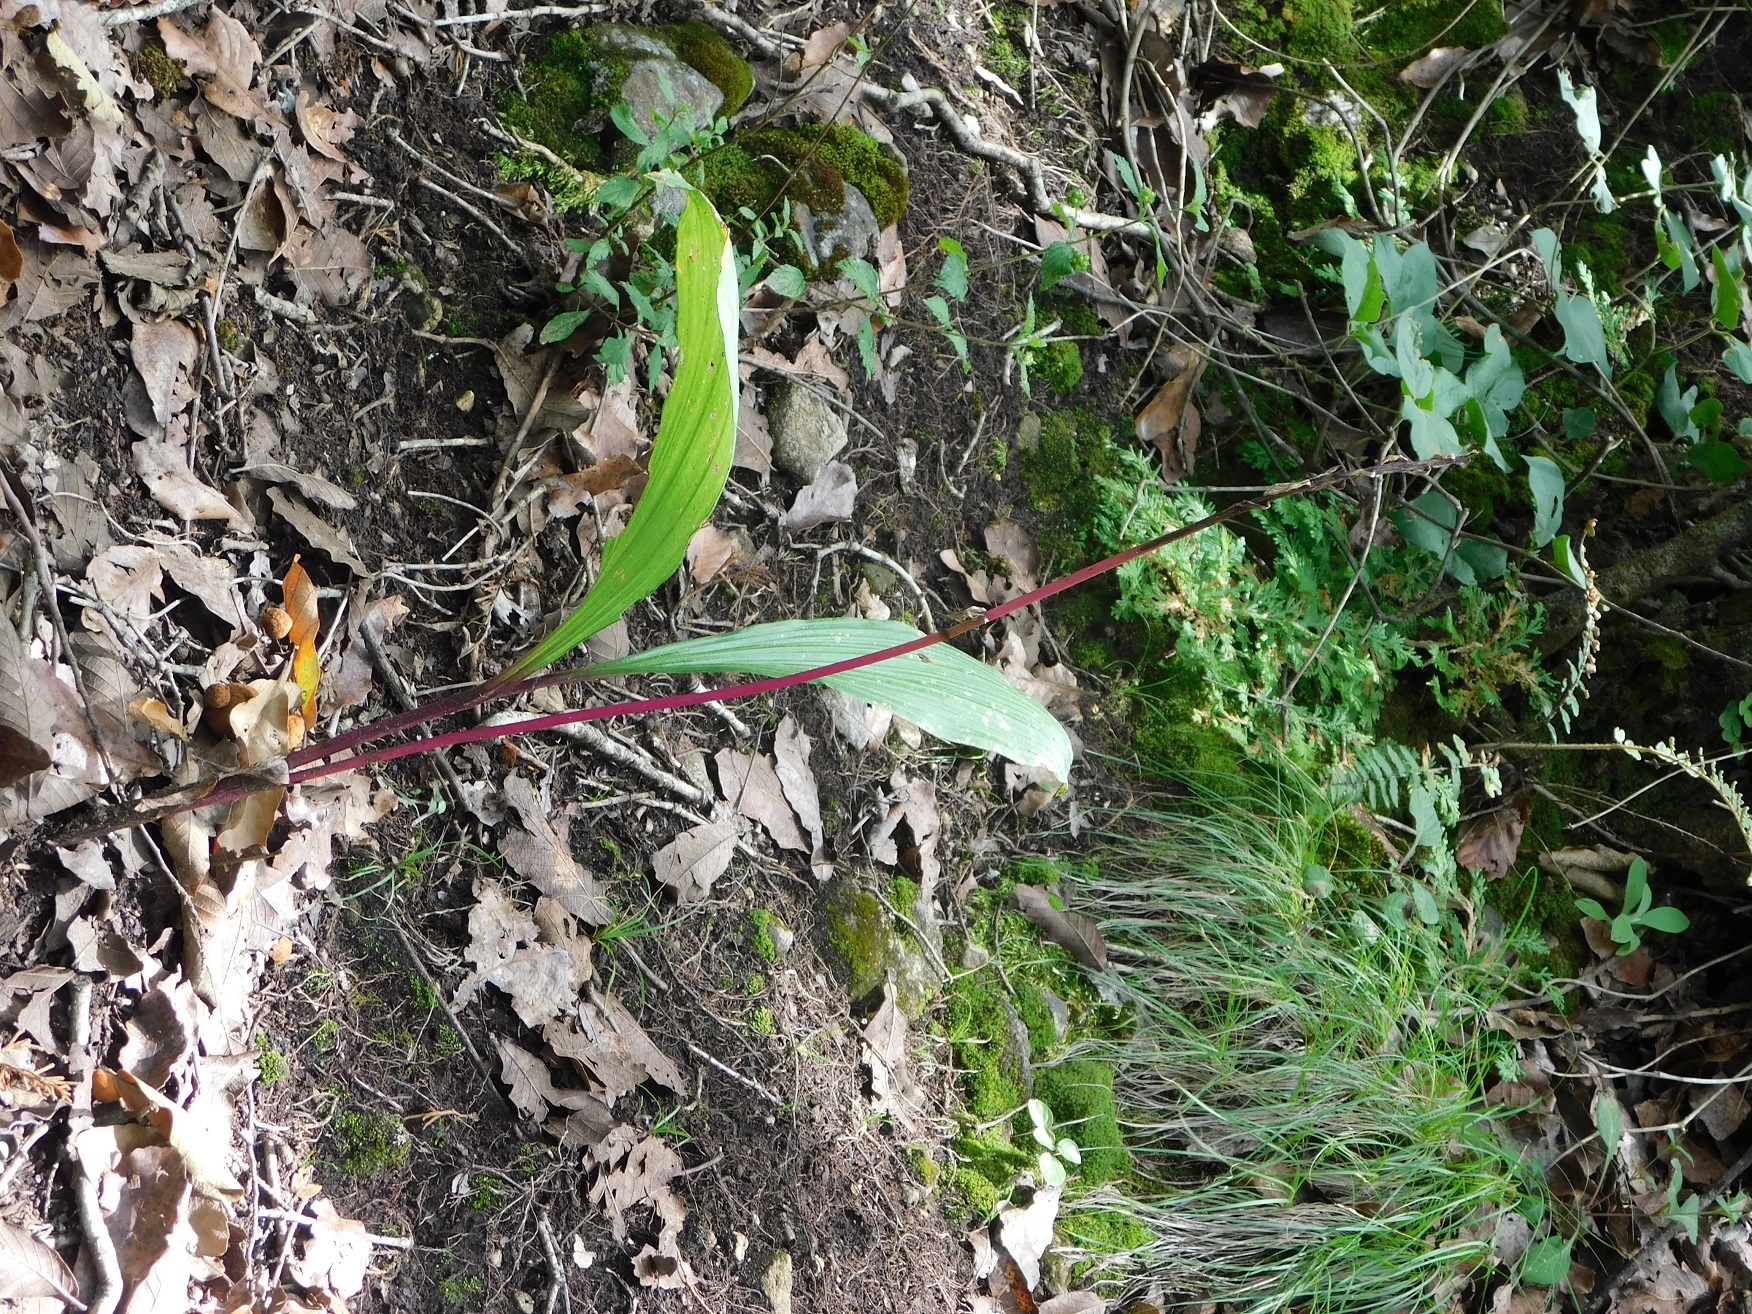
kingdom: Plantae
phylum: Tracheophyta
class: Liliopsida
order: Asparagales
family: Orchidaceae
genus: Govenia
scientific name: Govenia liliacea
